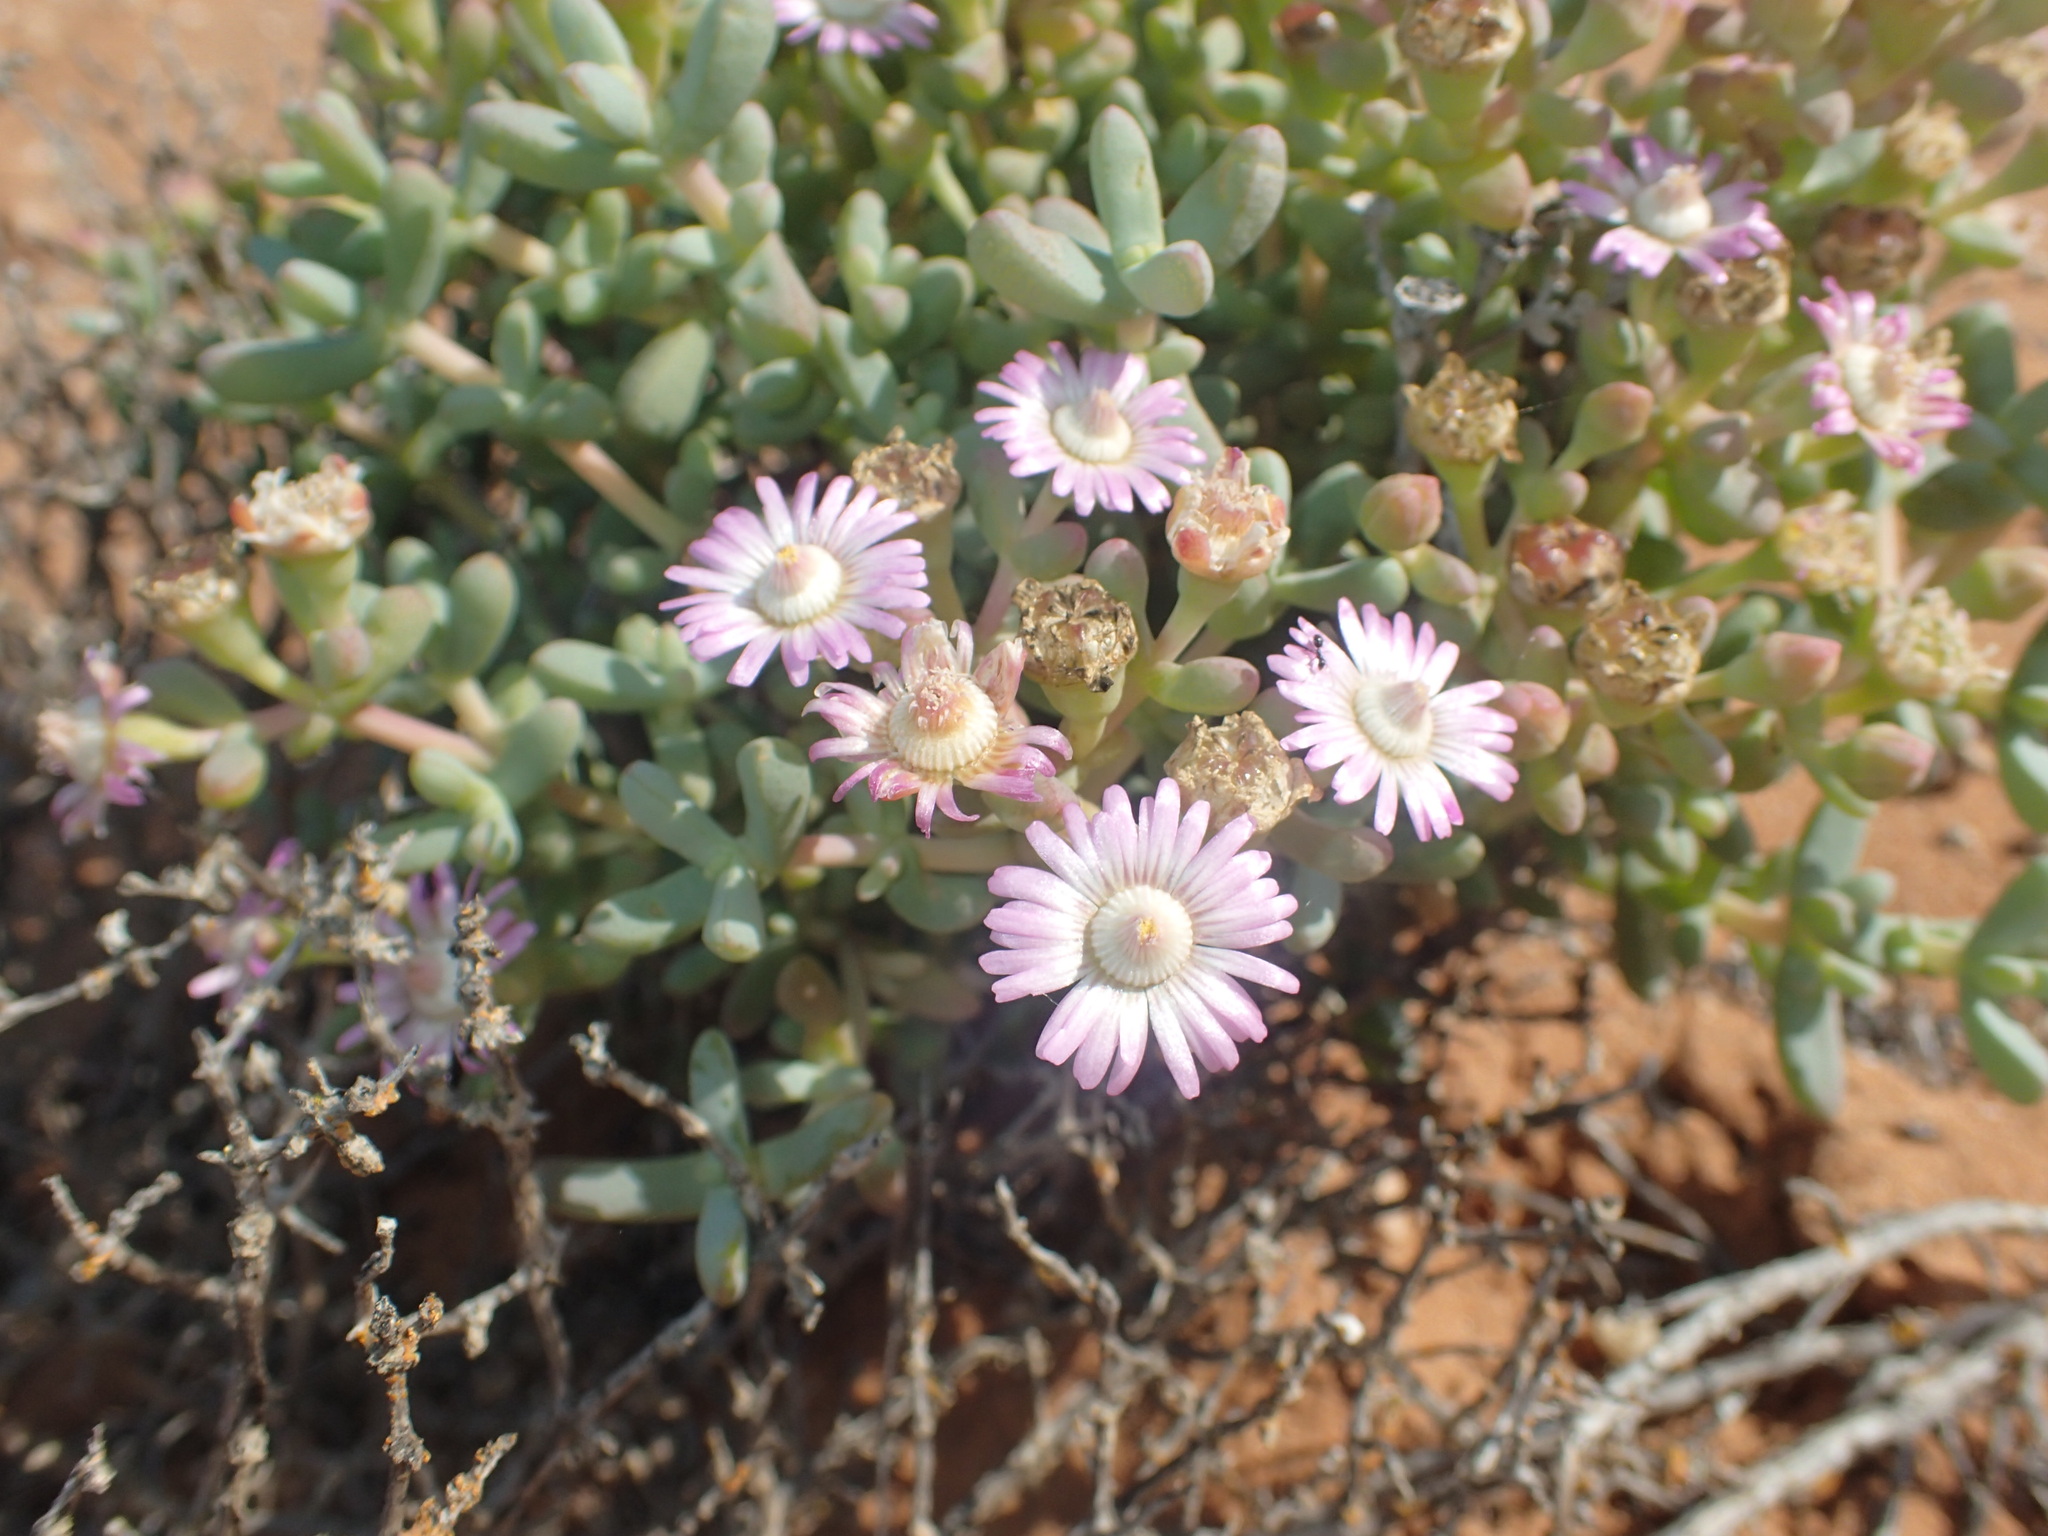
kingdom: Plantae
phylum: Tracheophyta
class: Magnoliopsida
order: Caryophyllales
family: Aizoaceae
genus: Amphibolia
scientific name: Amphibolia rupis-arcuatae
